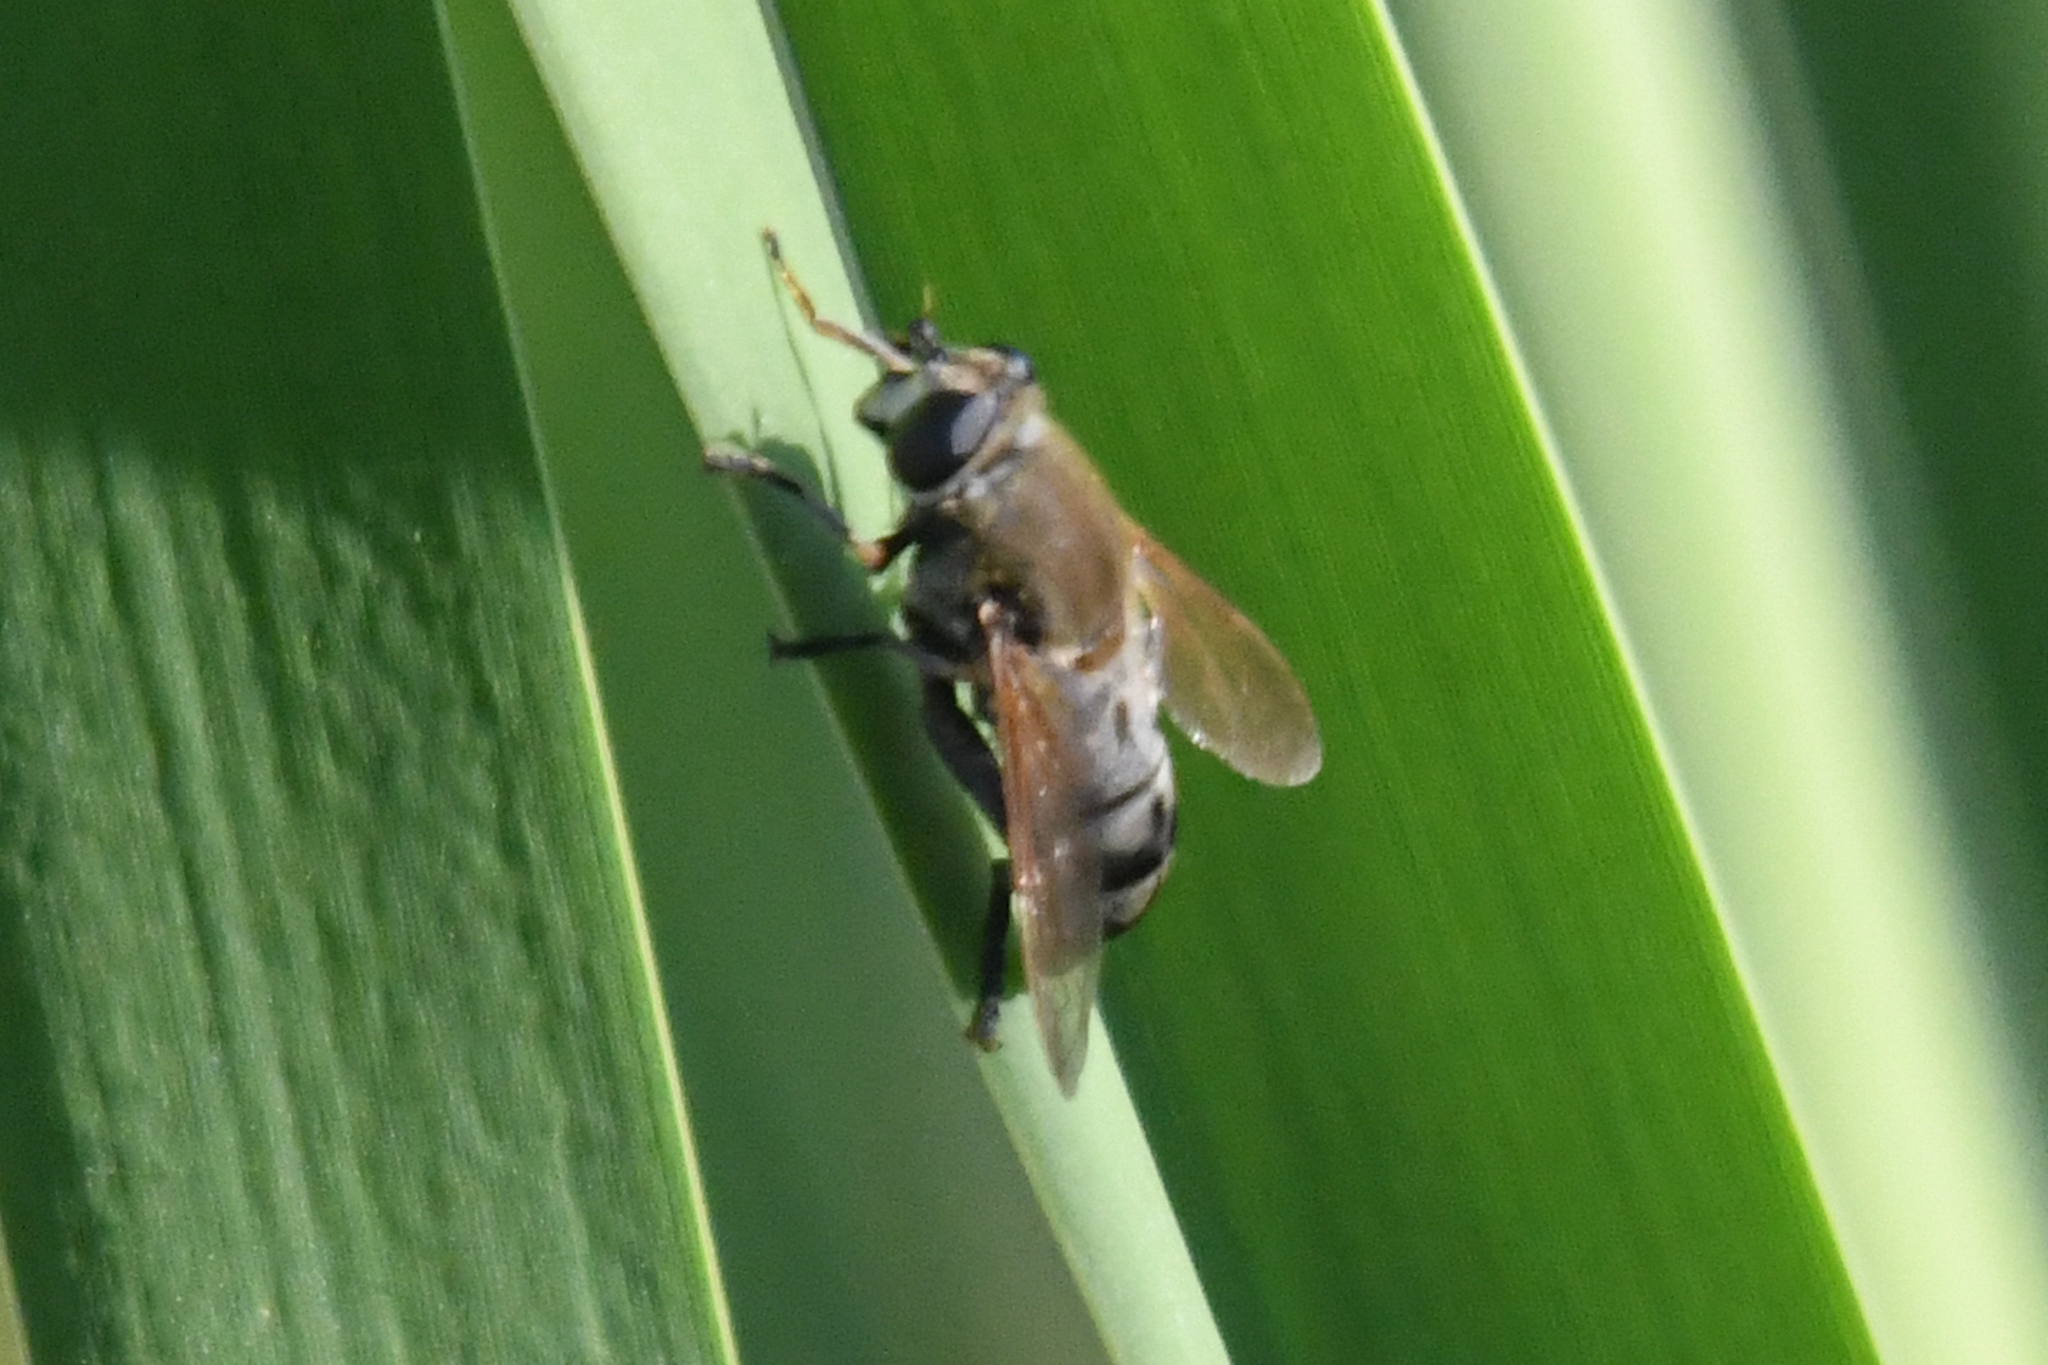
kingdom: Animalia
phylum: Arthropoda
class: Insecta
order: Diptera
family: Syrphidae
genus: Polydontomyia
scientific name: Polydontomyia curvipes
